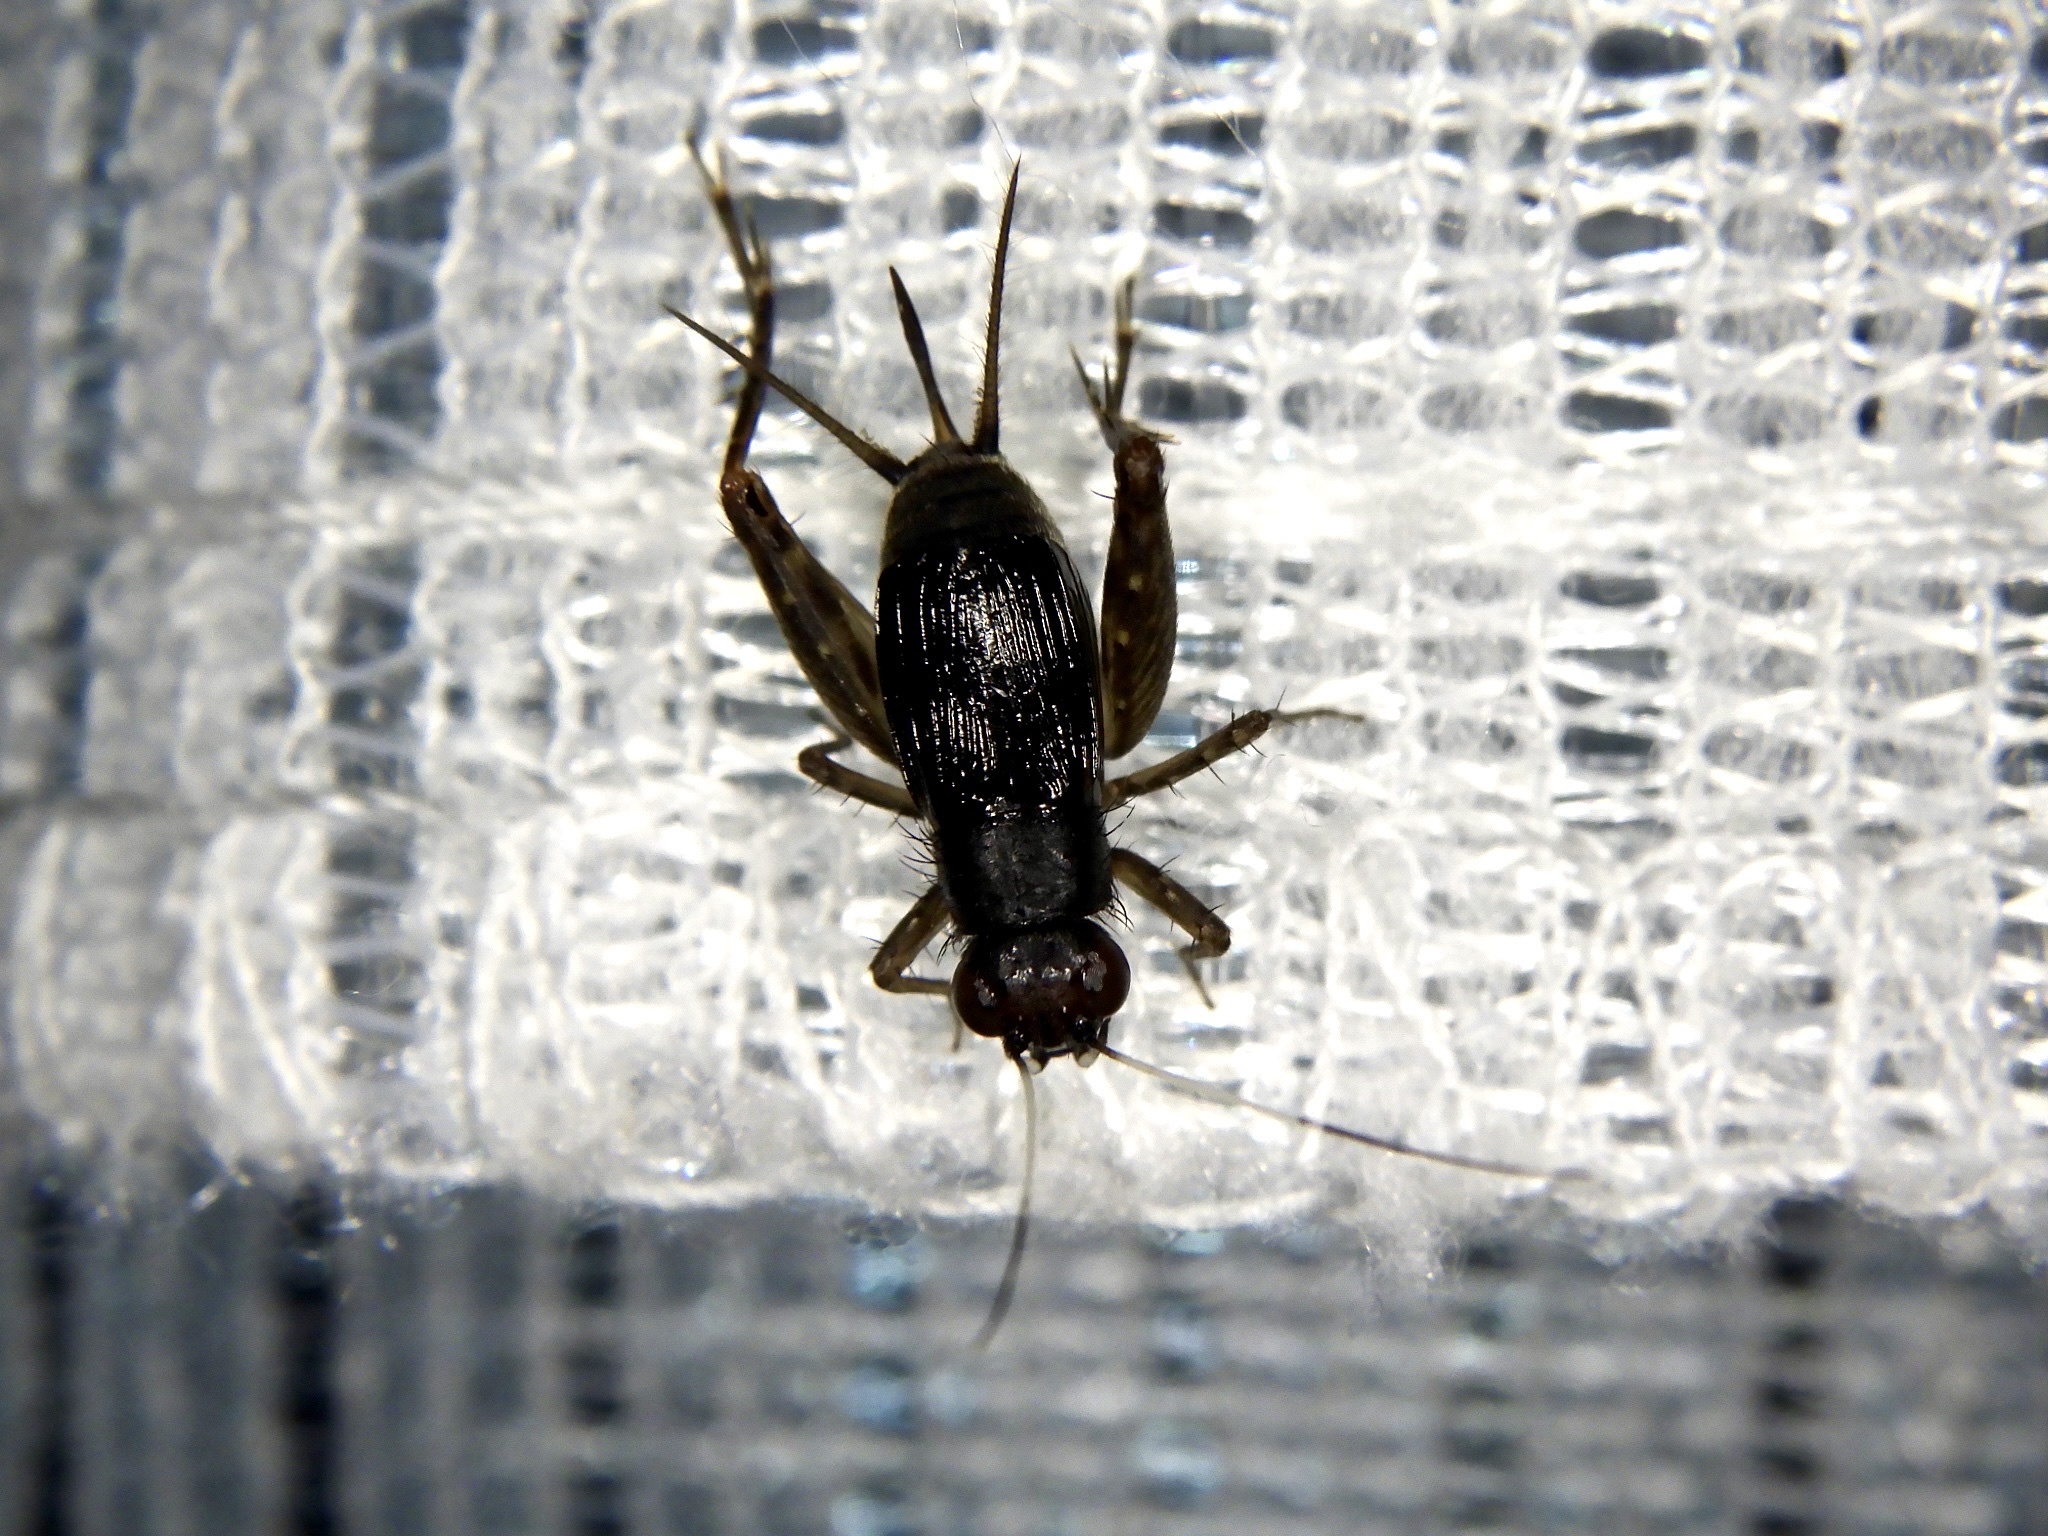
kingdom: Animalia
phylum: Arthropoda
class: Insecta
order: Orthoptera
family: Trigonidiidae
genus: Polionemobius
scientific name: Polionemobius flavoantennalis
